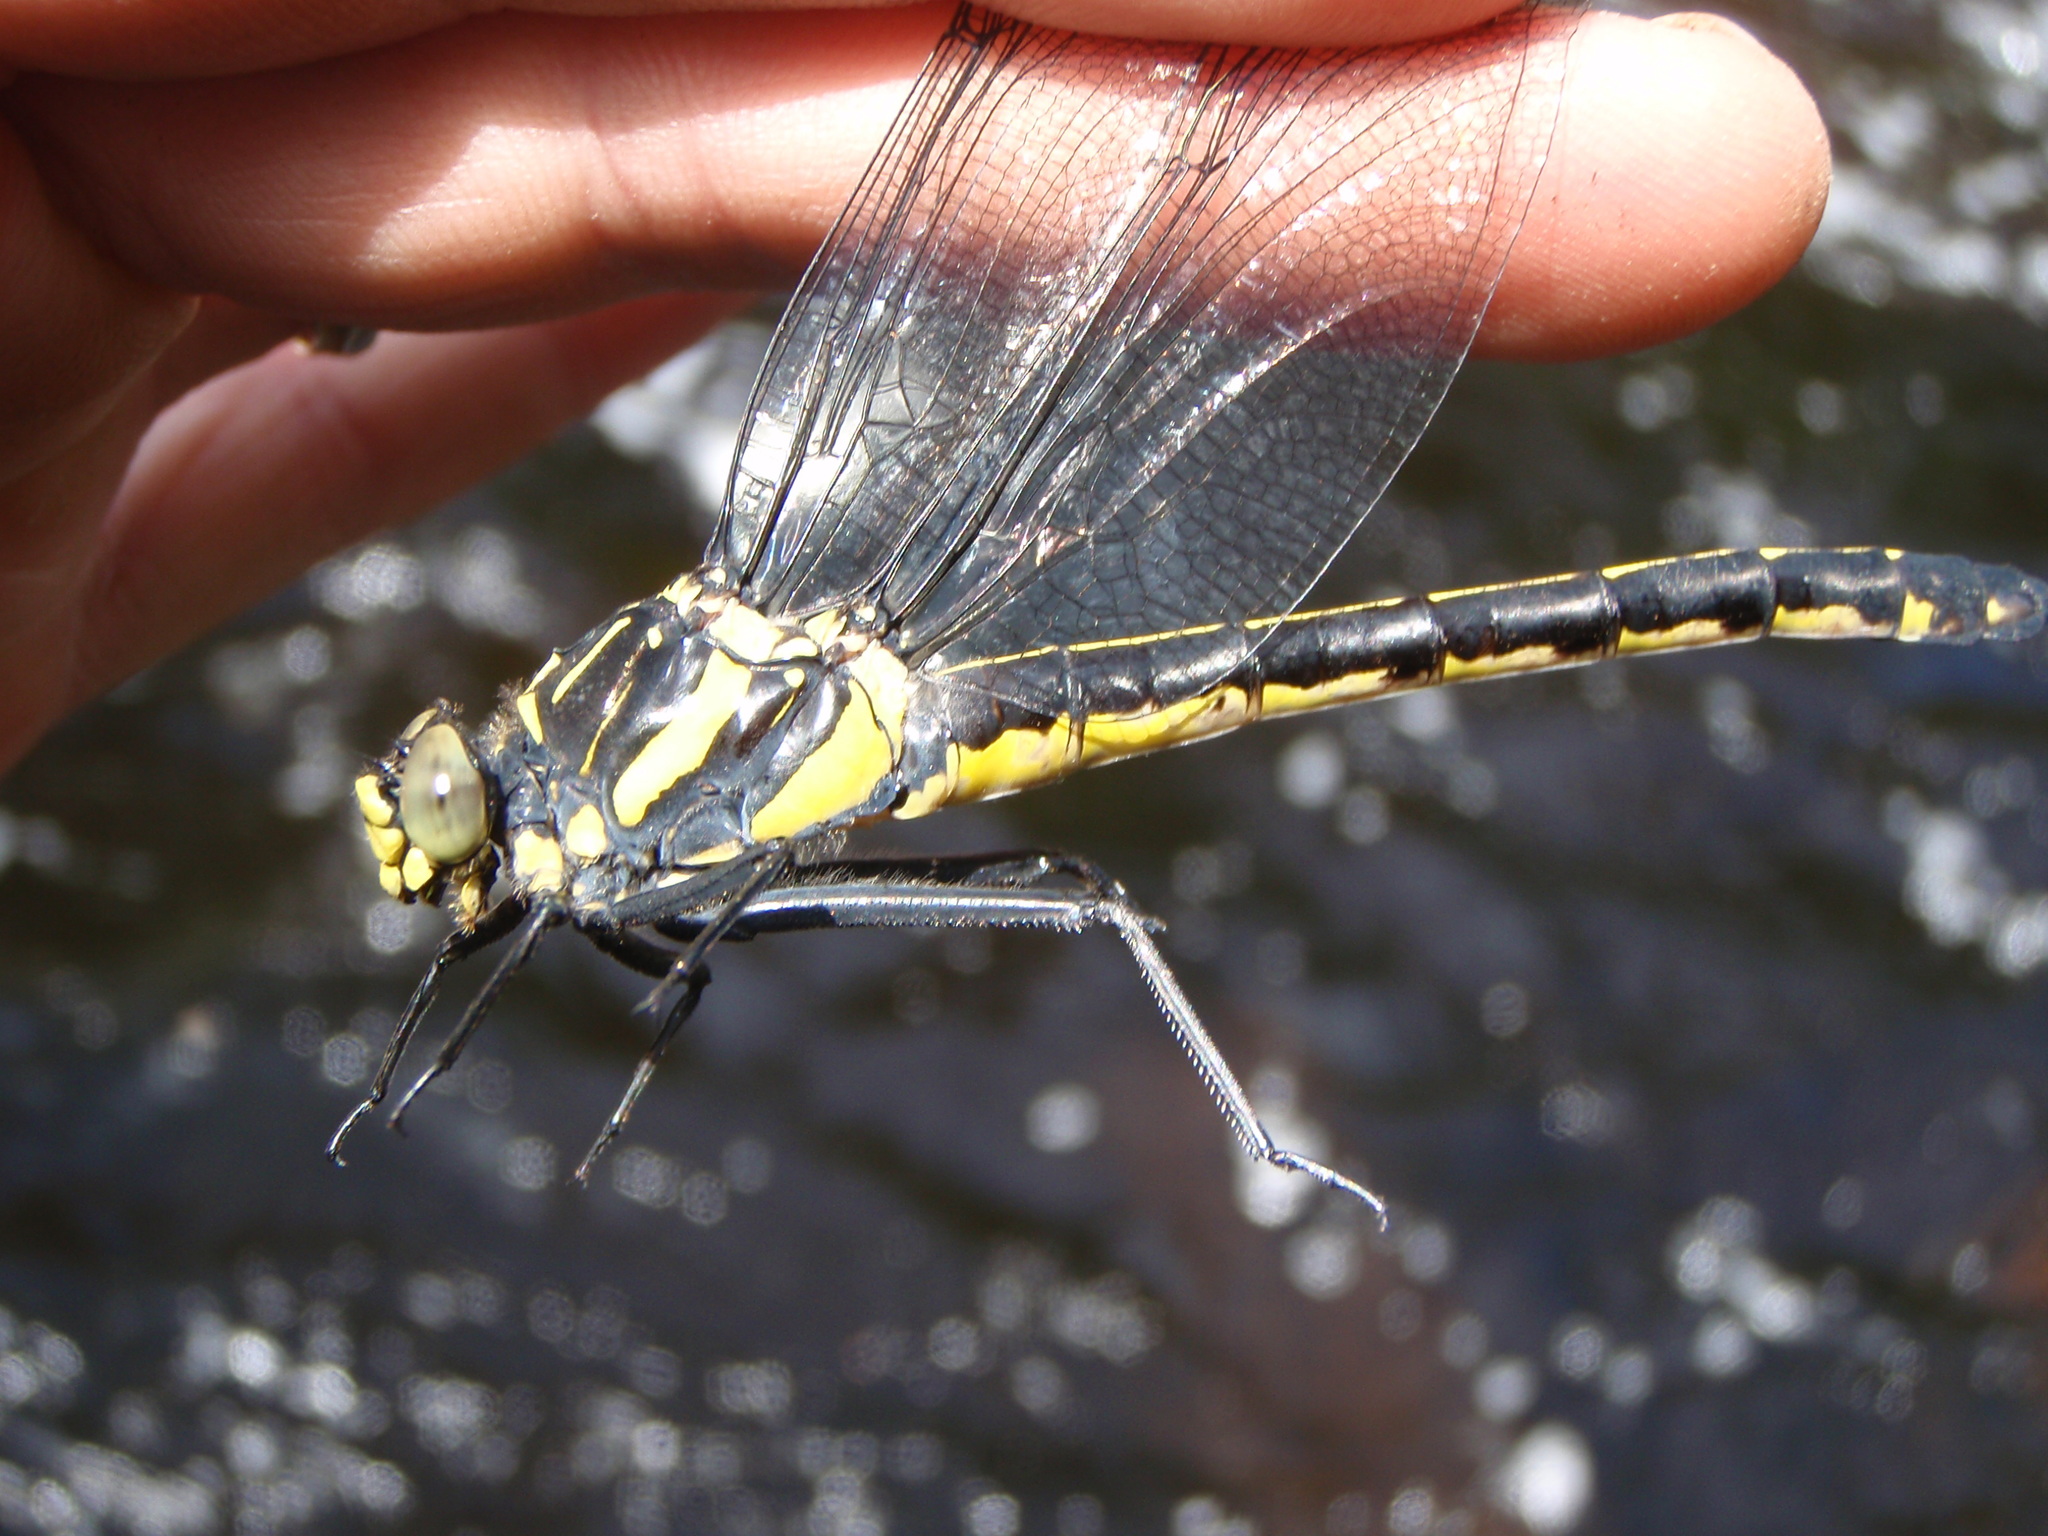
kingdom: Animalia
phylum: Arthropoda
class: Insecta
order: Odonata
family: Gomphidae
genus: Hagenius
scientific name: Hagenius brevistylus
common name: Dragonhunter
